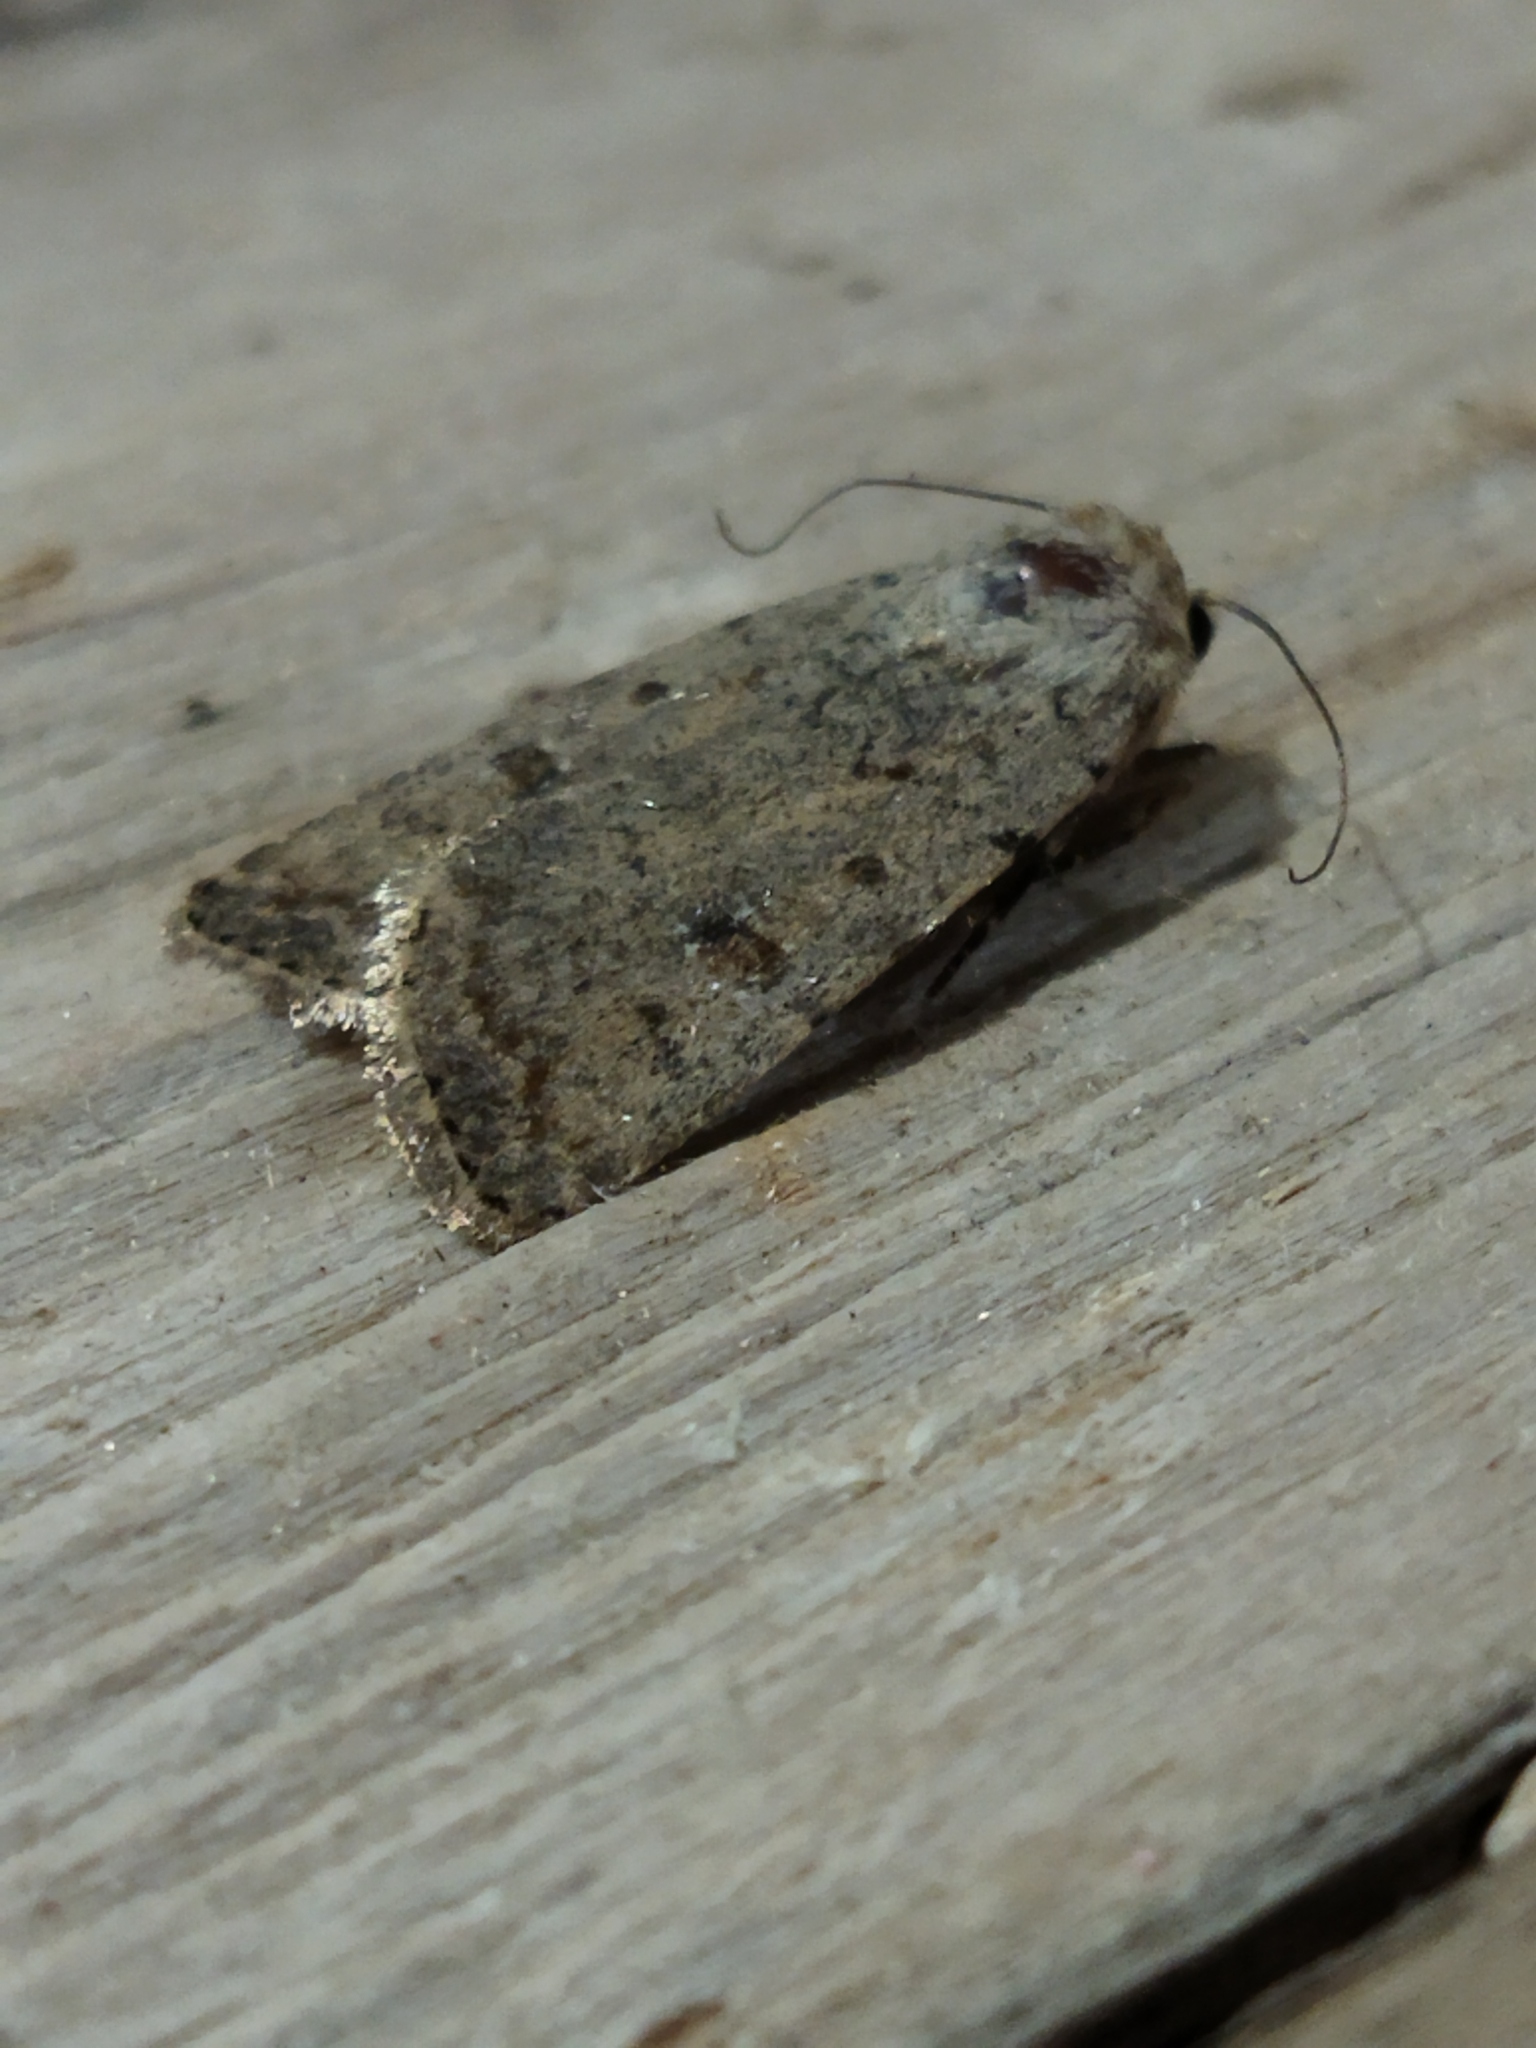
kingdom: Animalia
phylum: Arthropoda
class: Insecta
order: Lepidoptera
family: Noctuidae
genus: Caradrina
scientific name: Caradrina clavipalpis
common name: Pale mottled willow
